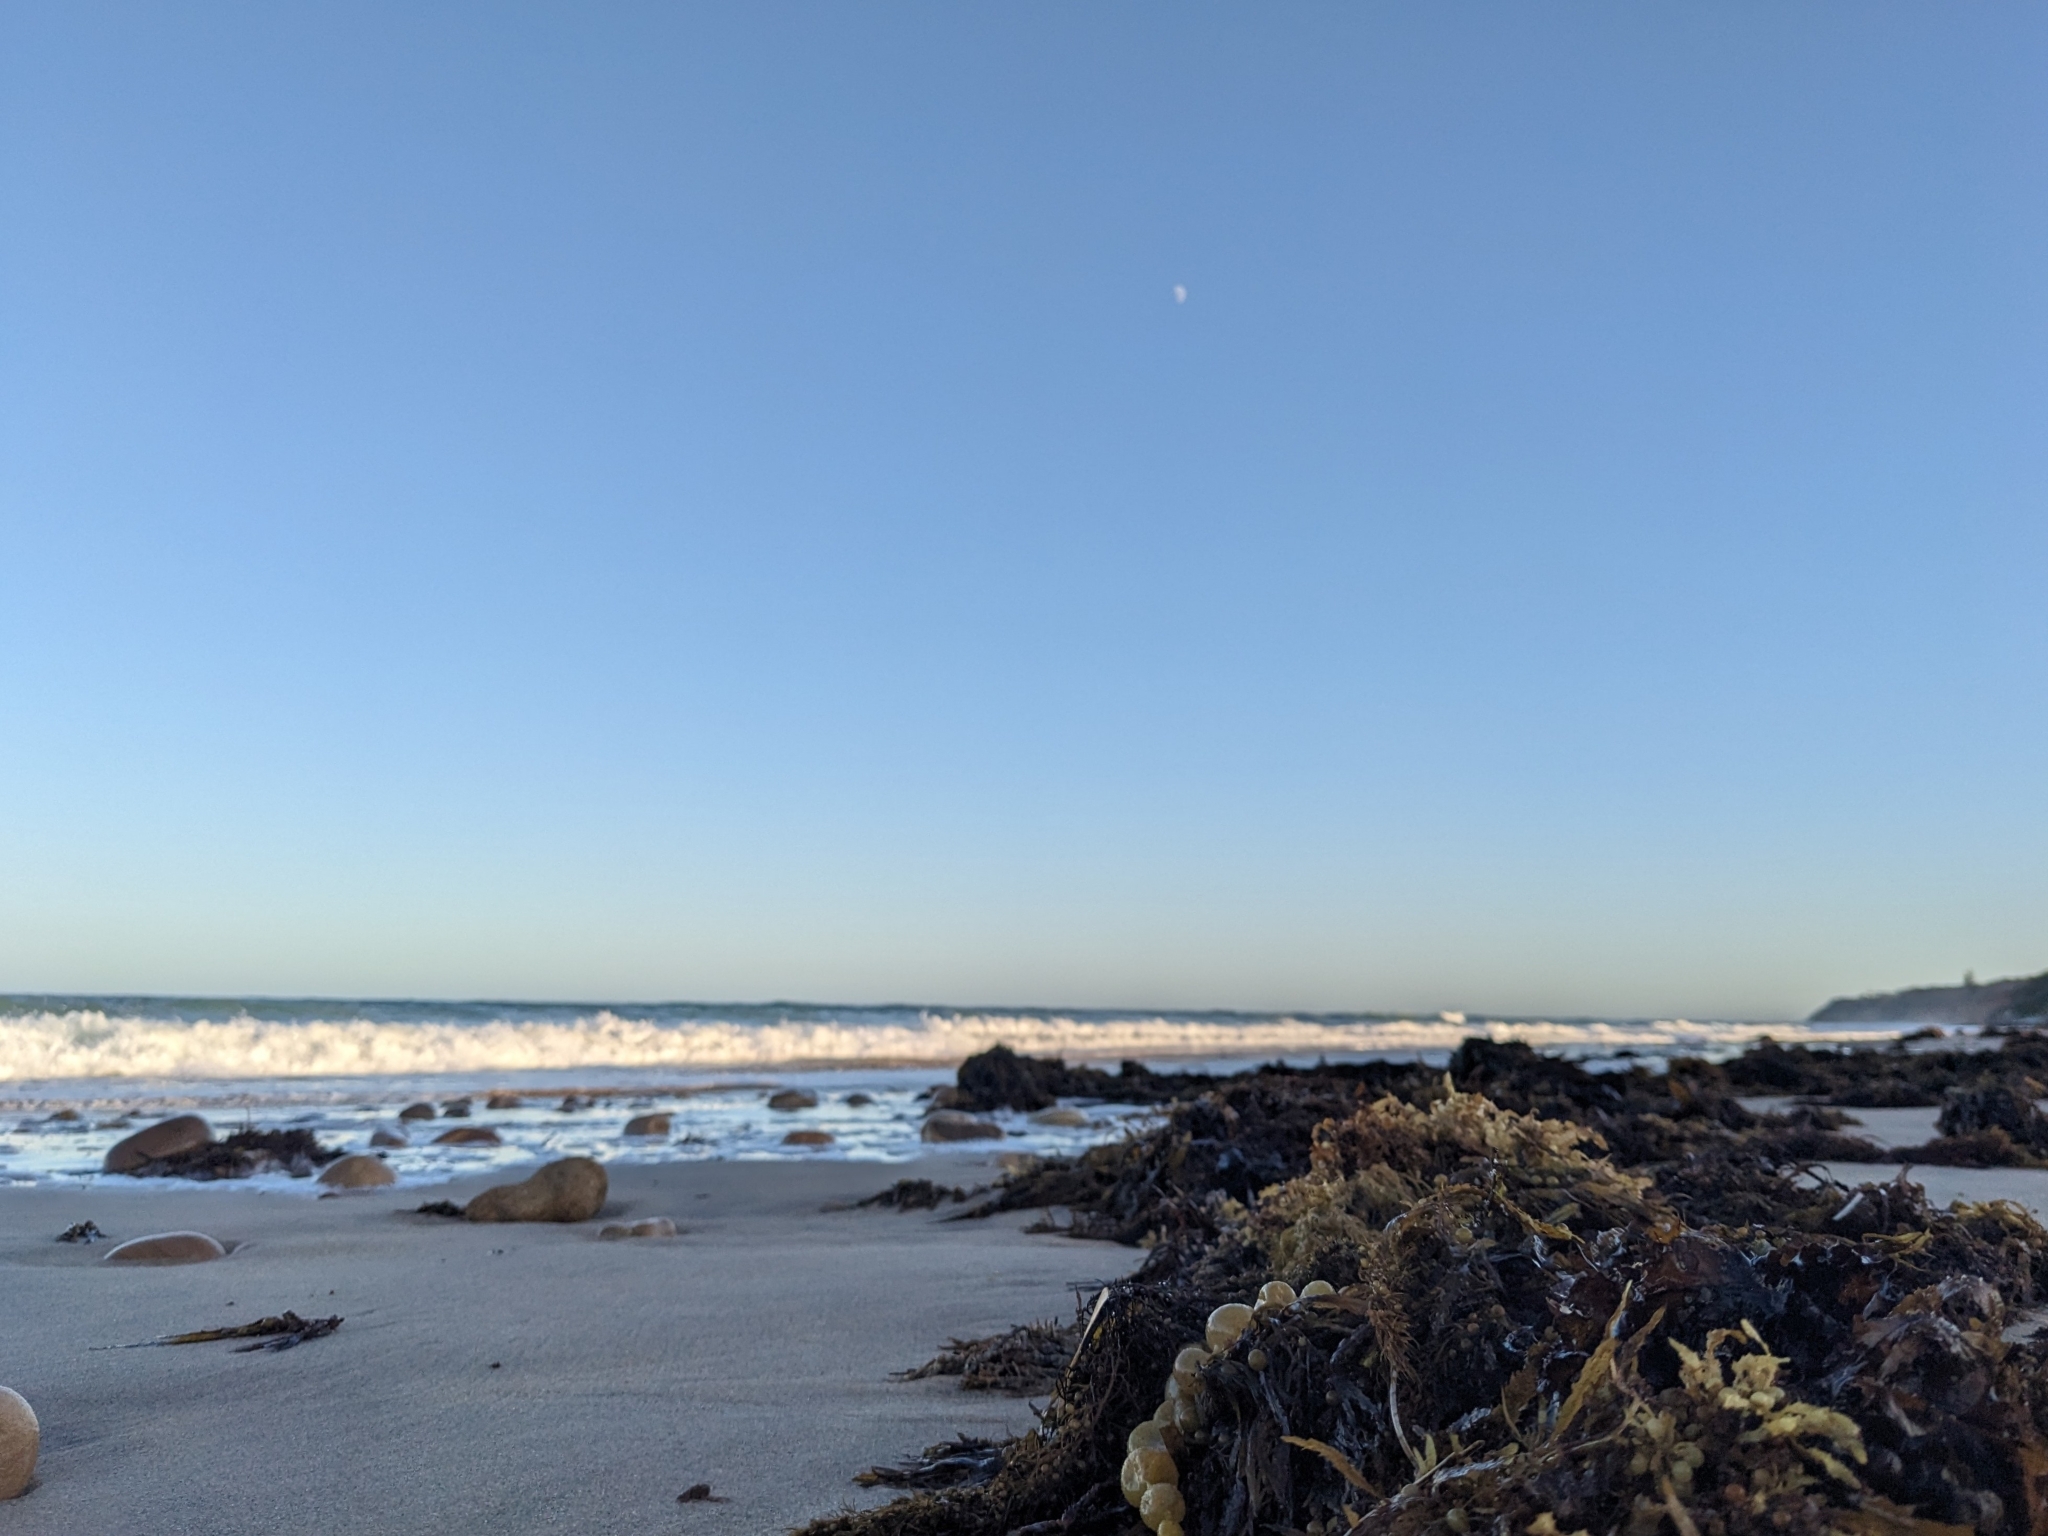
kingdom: Chromista
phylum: Ochrophyta
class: Phaeophyceae
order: Fucales
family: Hormosiraceae
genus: Hormosira
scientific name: Hormosira banksii
